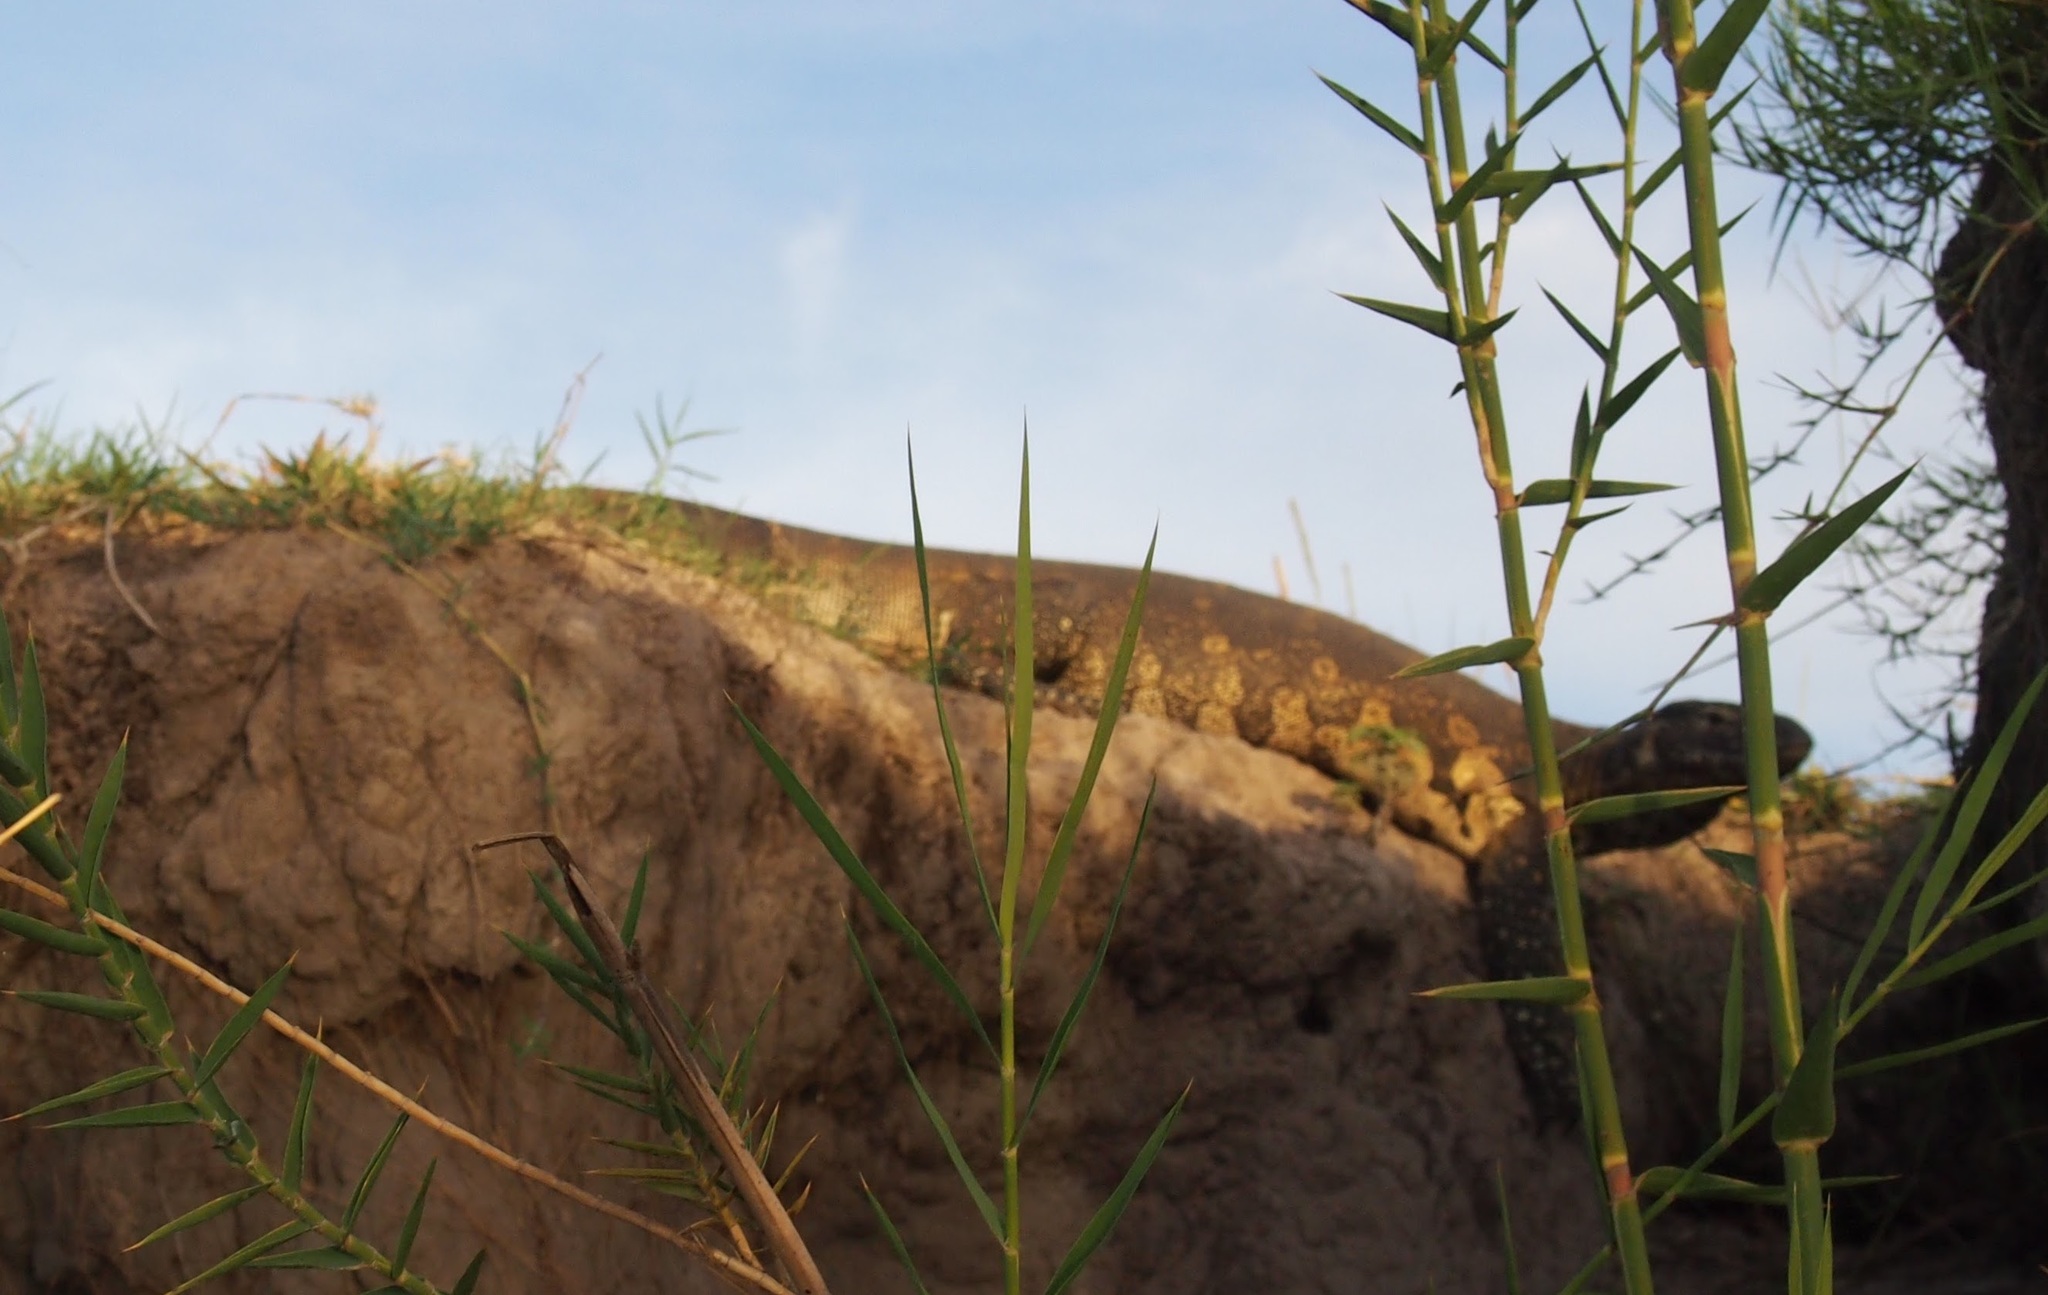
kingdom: Animalia
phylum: Chordata
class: Squamata
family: Varanidae
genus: Varanus
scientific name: Varanus niloticus
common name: Nile monitor
